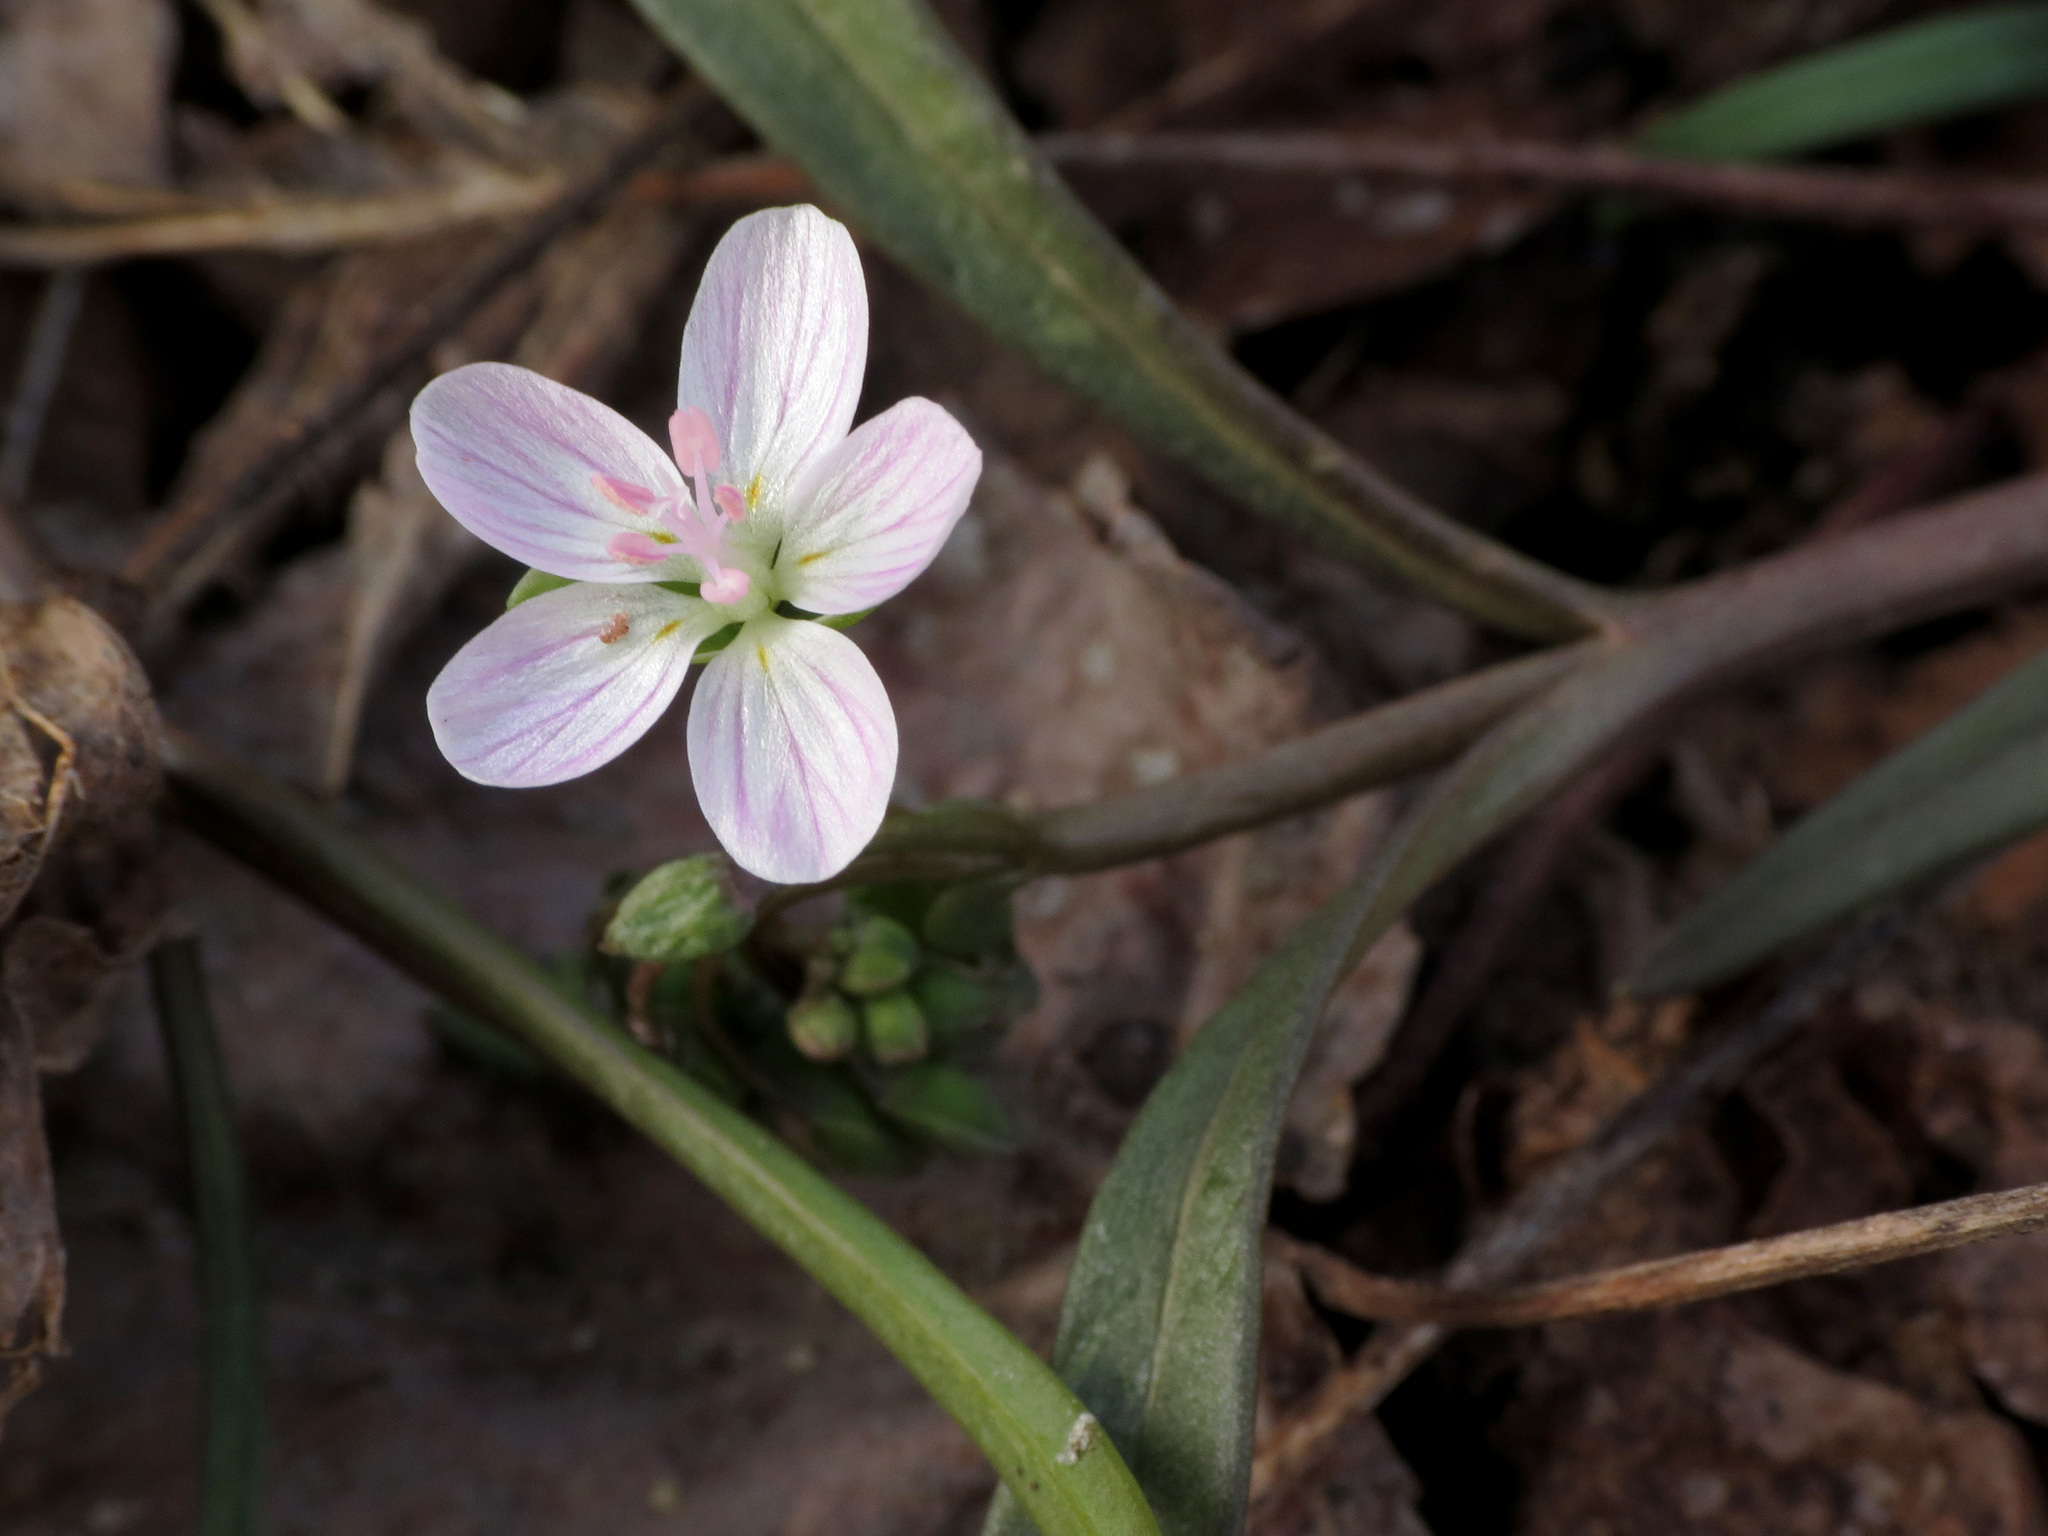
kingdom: Plantae
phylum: Tracheophyta
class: Magnoliopsida
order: Caryophyllales
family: Montiaceae
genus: Claytonia
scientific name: Claytonia virginica
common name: Virginia springbeauty
